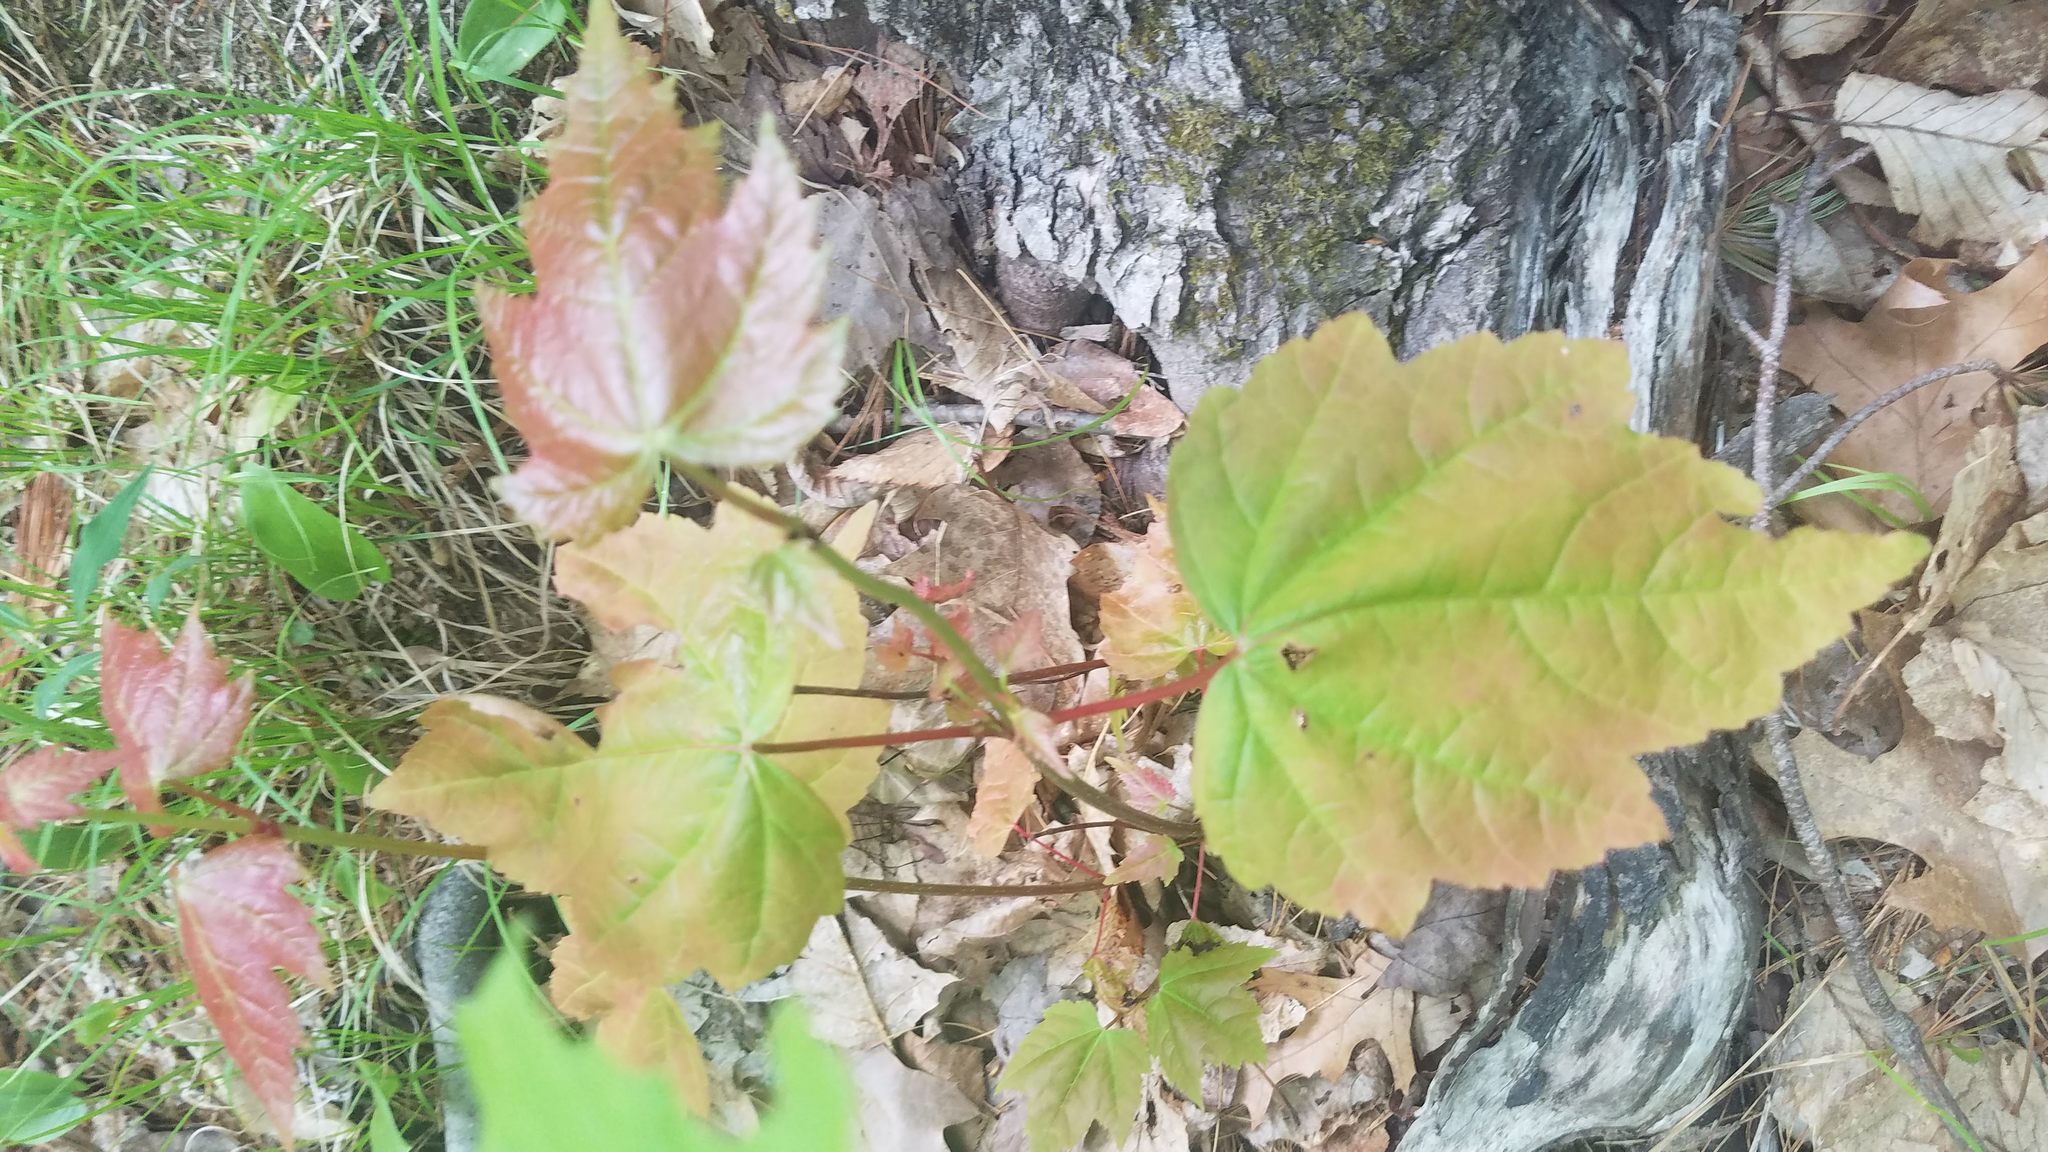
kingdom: Plantae
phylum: Tracheophyta
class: Magnoliopsida
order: Sapindales
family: Sapindaceae
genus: Acer
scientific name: Acer rubrum
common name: Red maple
